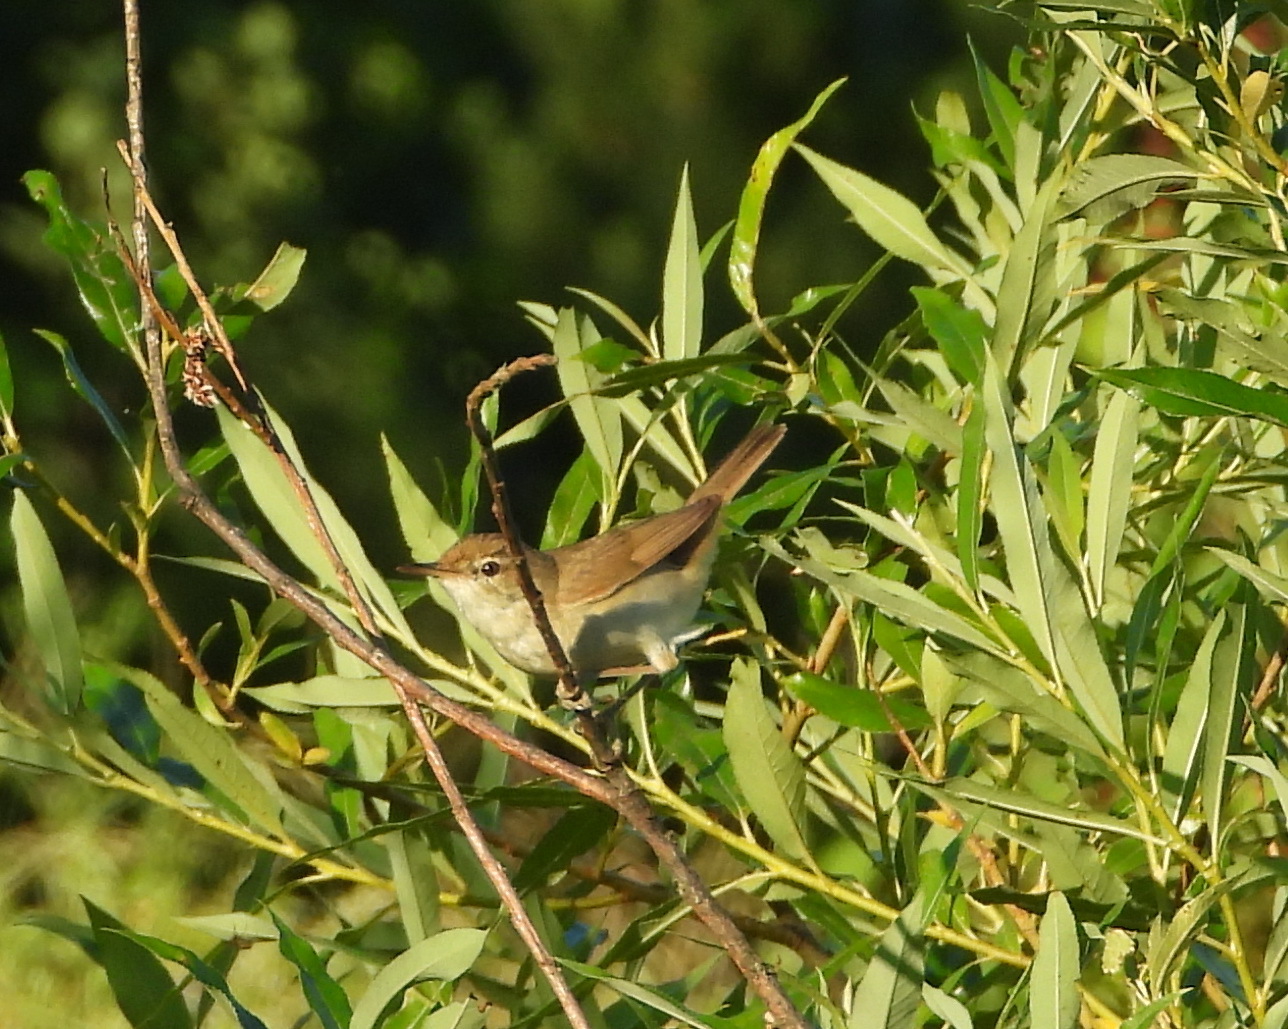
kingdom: Animalia
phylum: Chordata
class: Aves
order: Passeriformes
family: Acrocephalidae
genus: Acrocephalus
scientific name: Acrocephalus dumetorum
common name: Blyth's reed warbler
